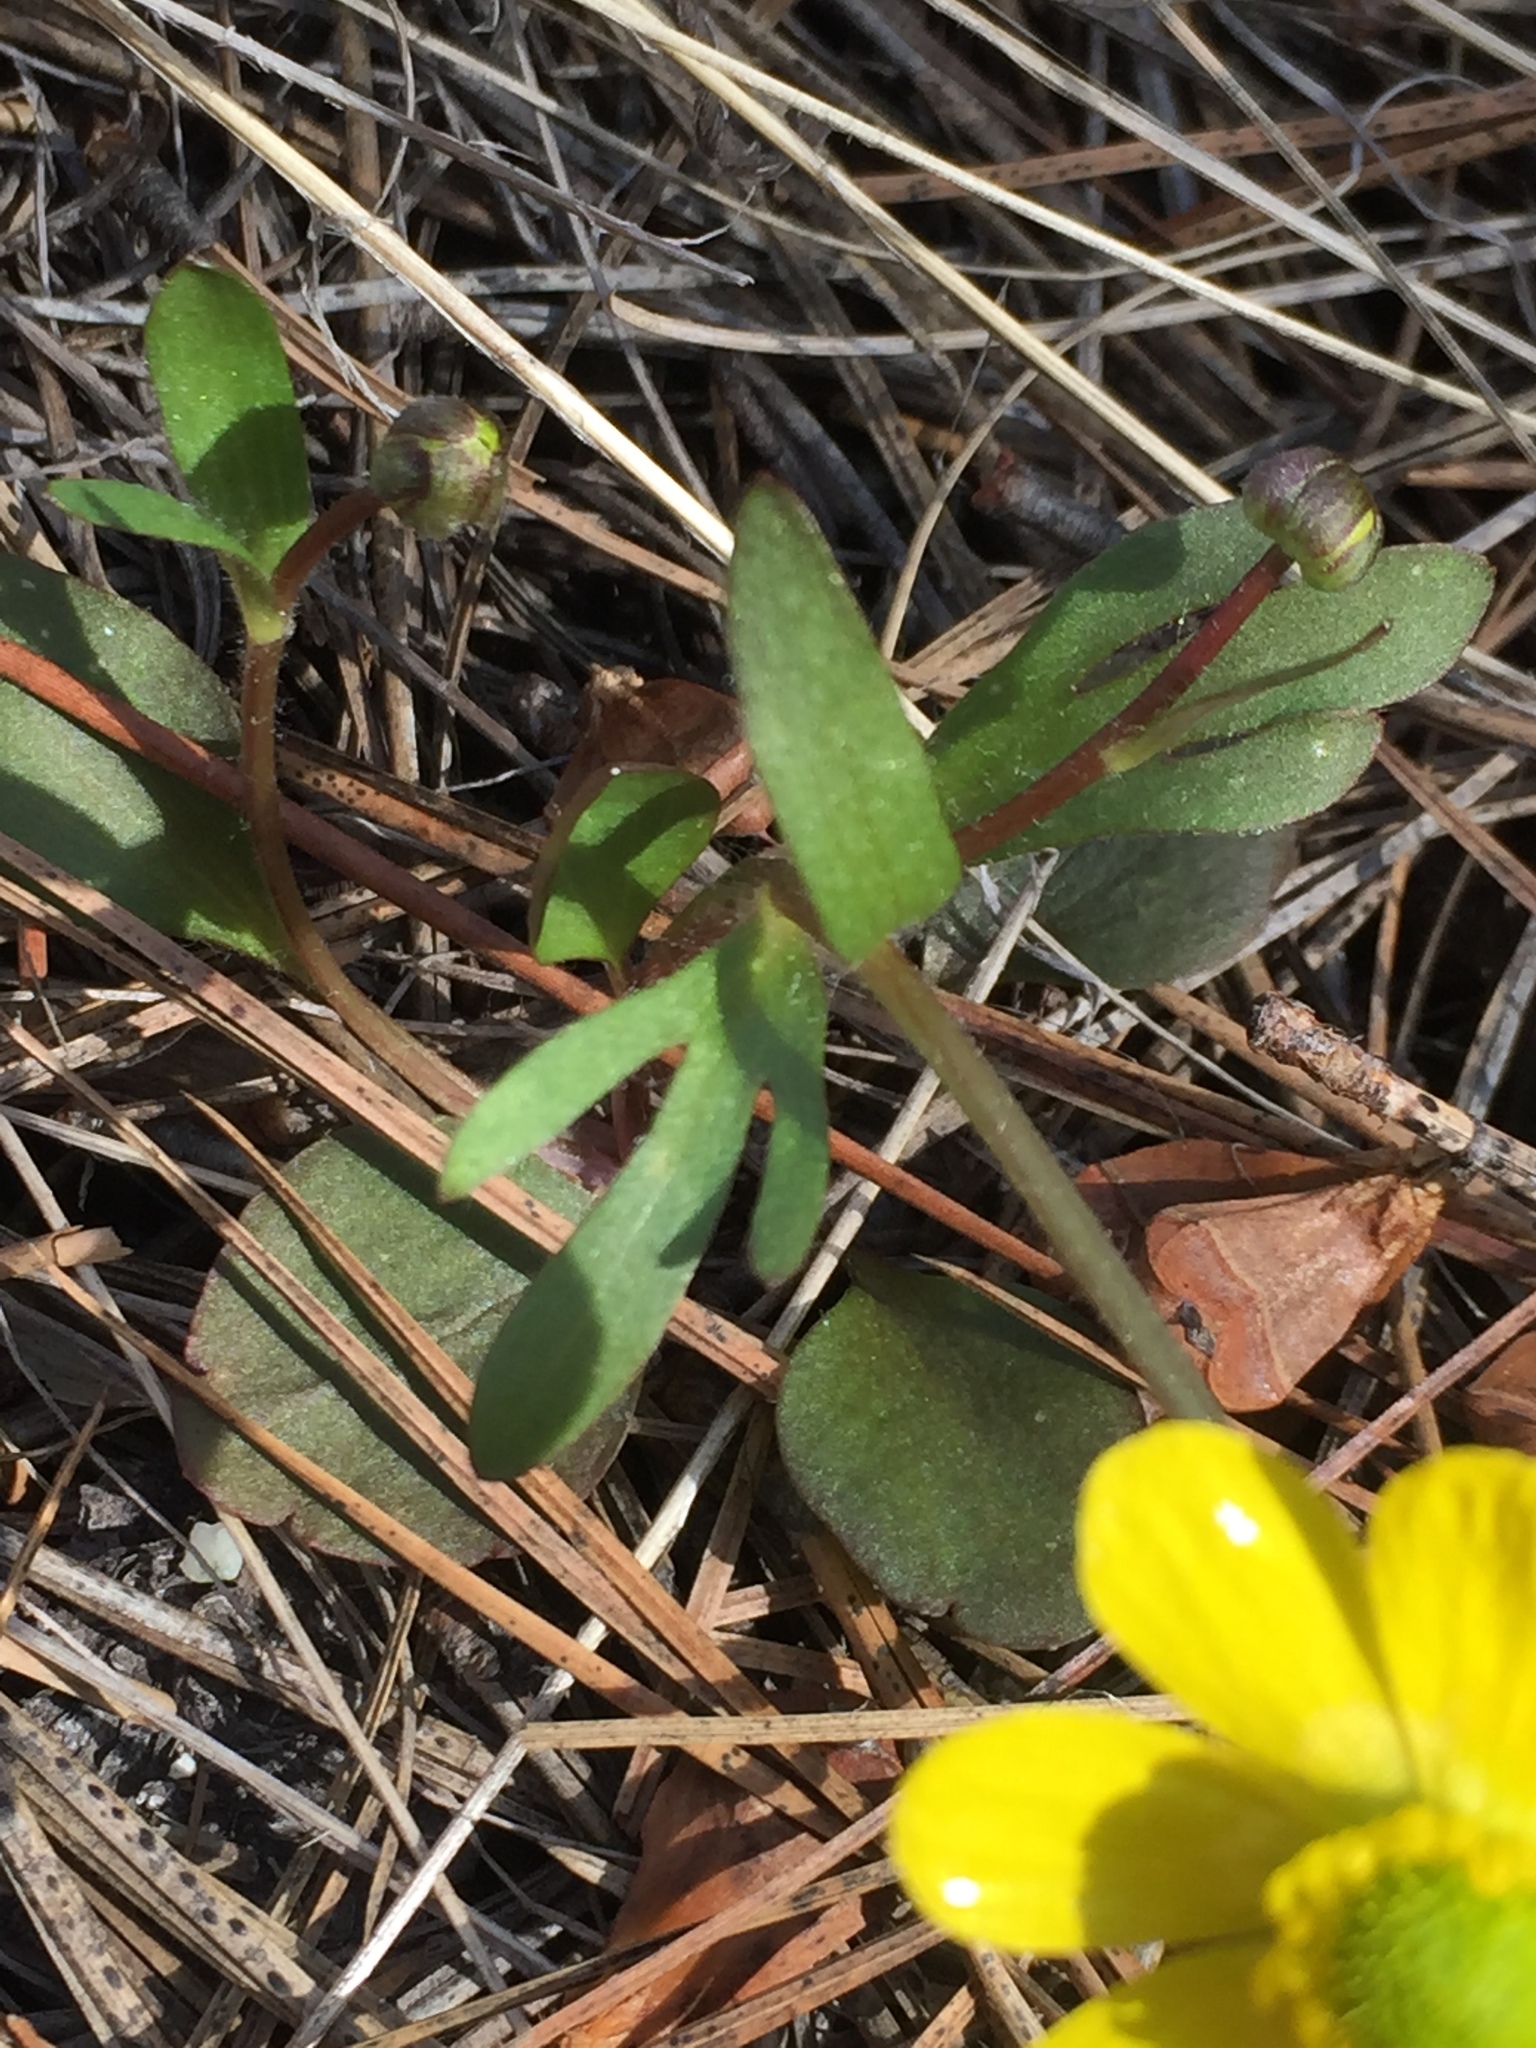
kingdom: Plantae
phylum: Tracheophyta
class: Magnoliopsida
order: Ranunculales
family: Ranunculaceae
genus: Ranunculus
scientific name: Ranunculus glaberrimus
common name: Sagebrush buttercup
